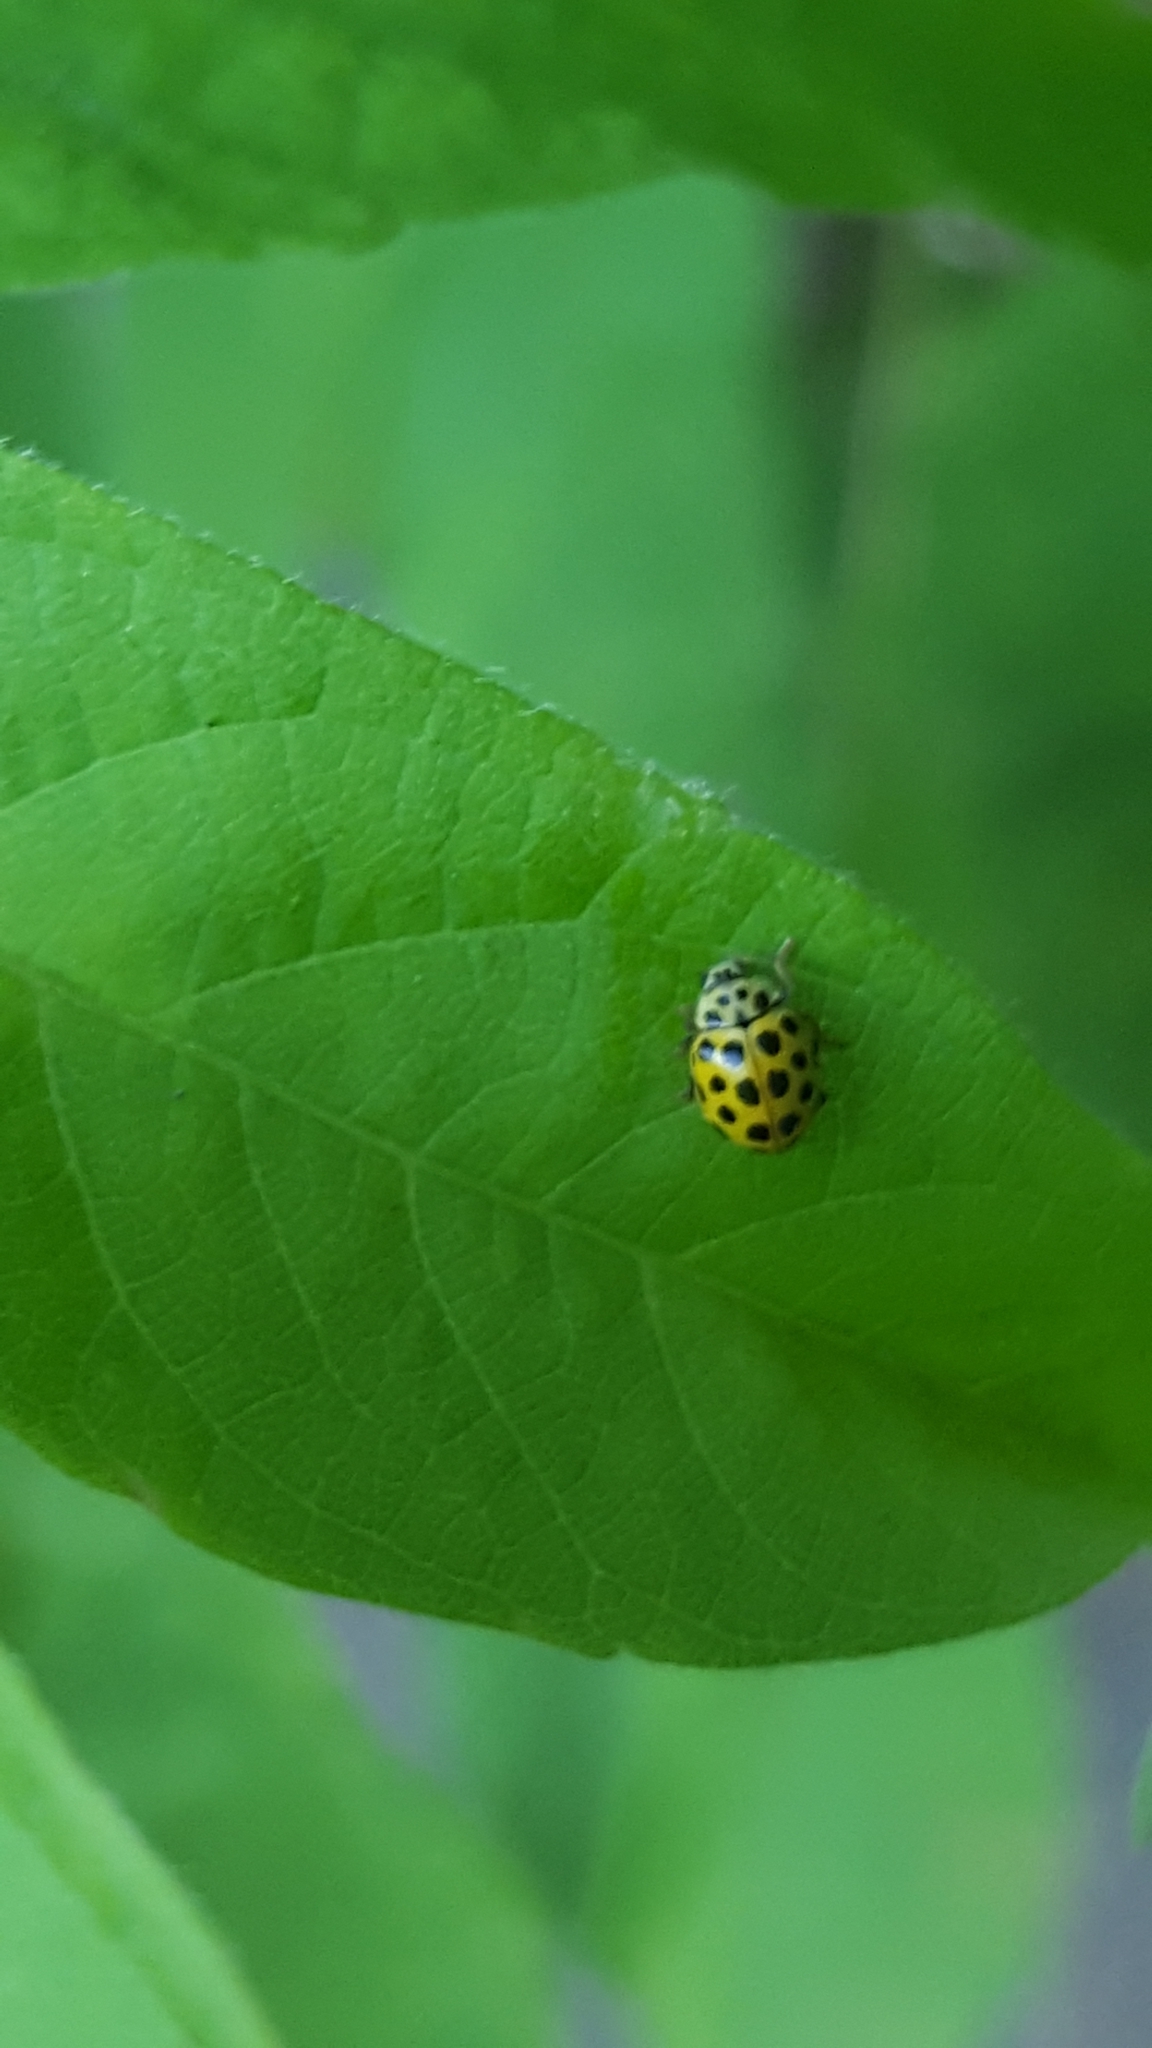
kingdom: Animalia
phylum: Arthropoda
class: Insecta
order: Coleoptera
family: Coccinellidae
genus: Psyllobora
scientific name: Psyllobora vigintiduopunctata
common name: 22-spot ladybird
